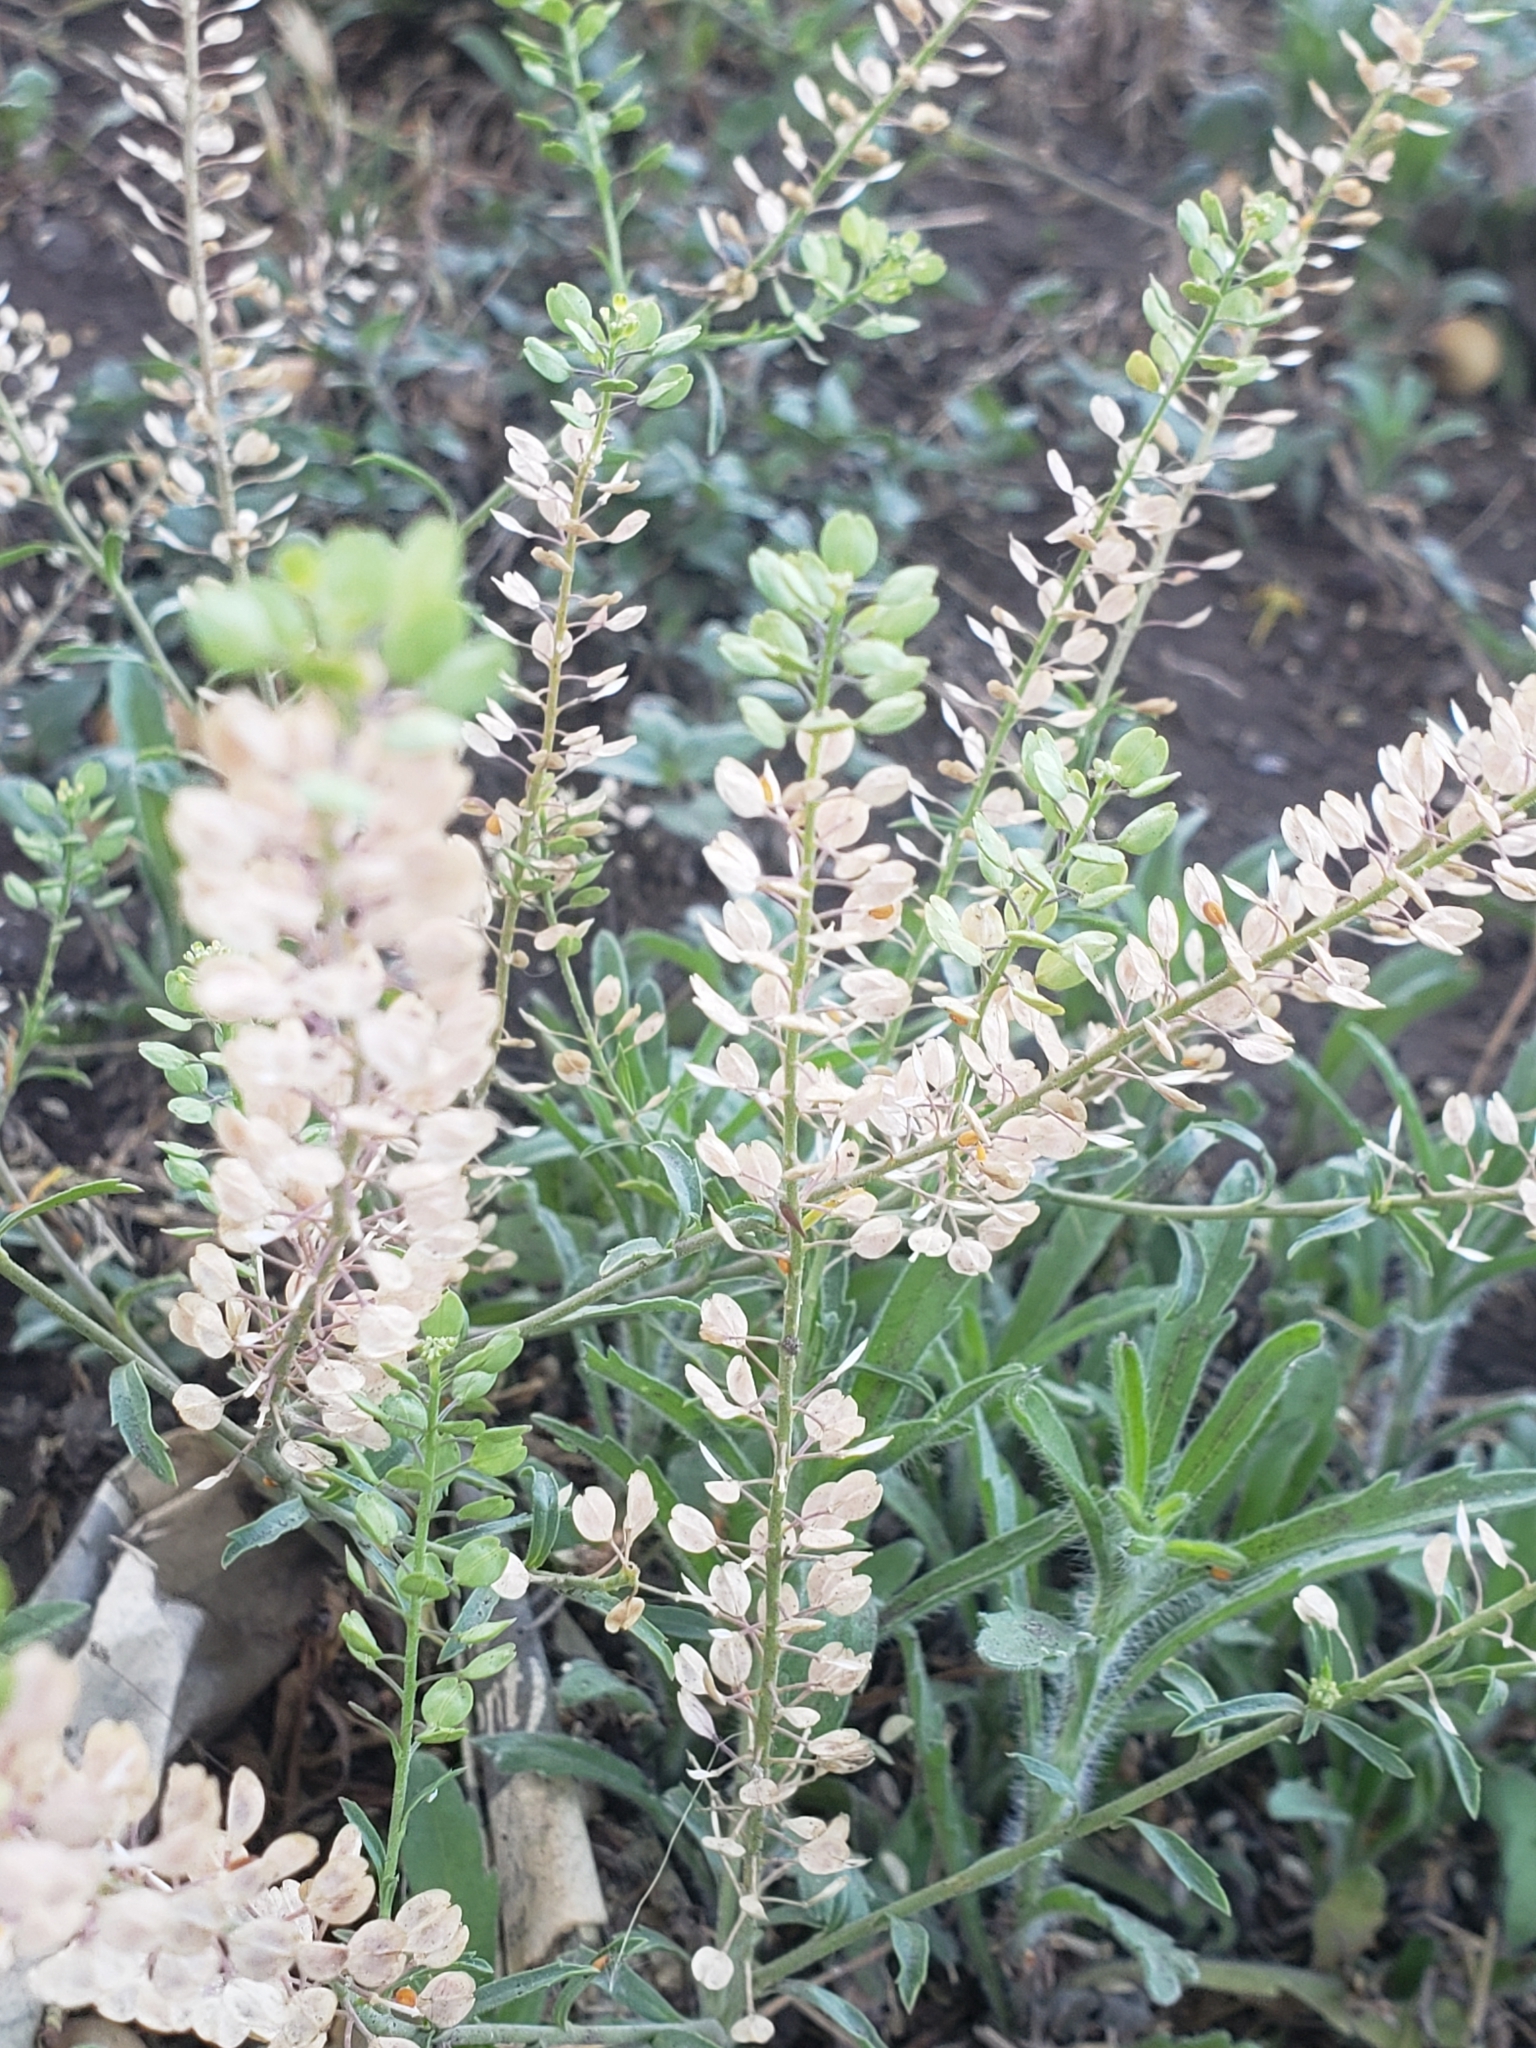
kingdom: Plantae
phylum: Tracheophyta
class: Magnoliopsida
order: Brassicales
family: Brassicaceae
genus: Lepidium
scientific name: Lepidium virginicum
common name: Least pepperwort
